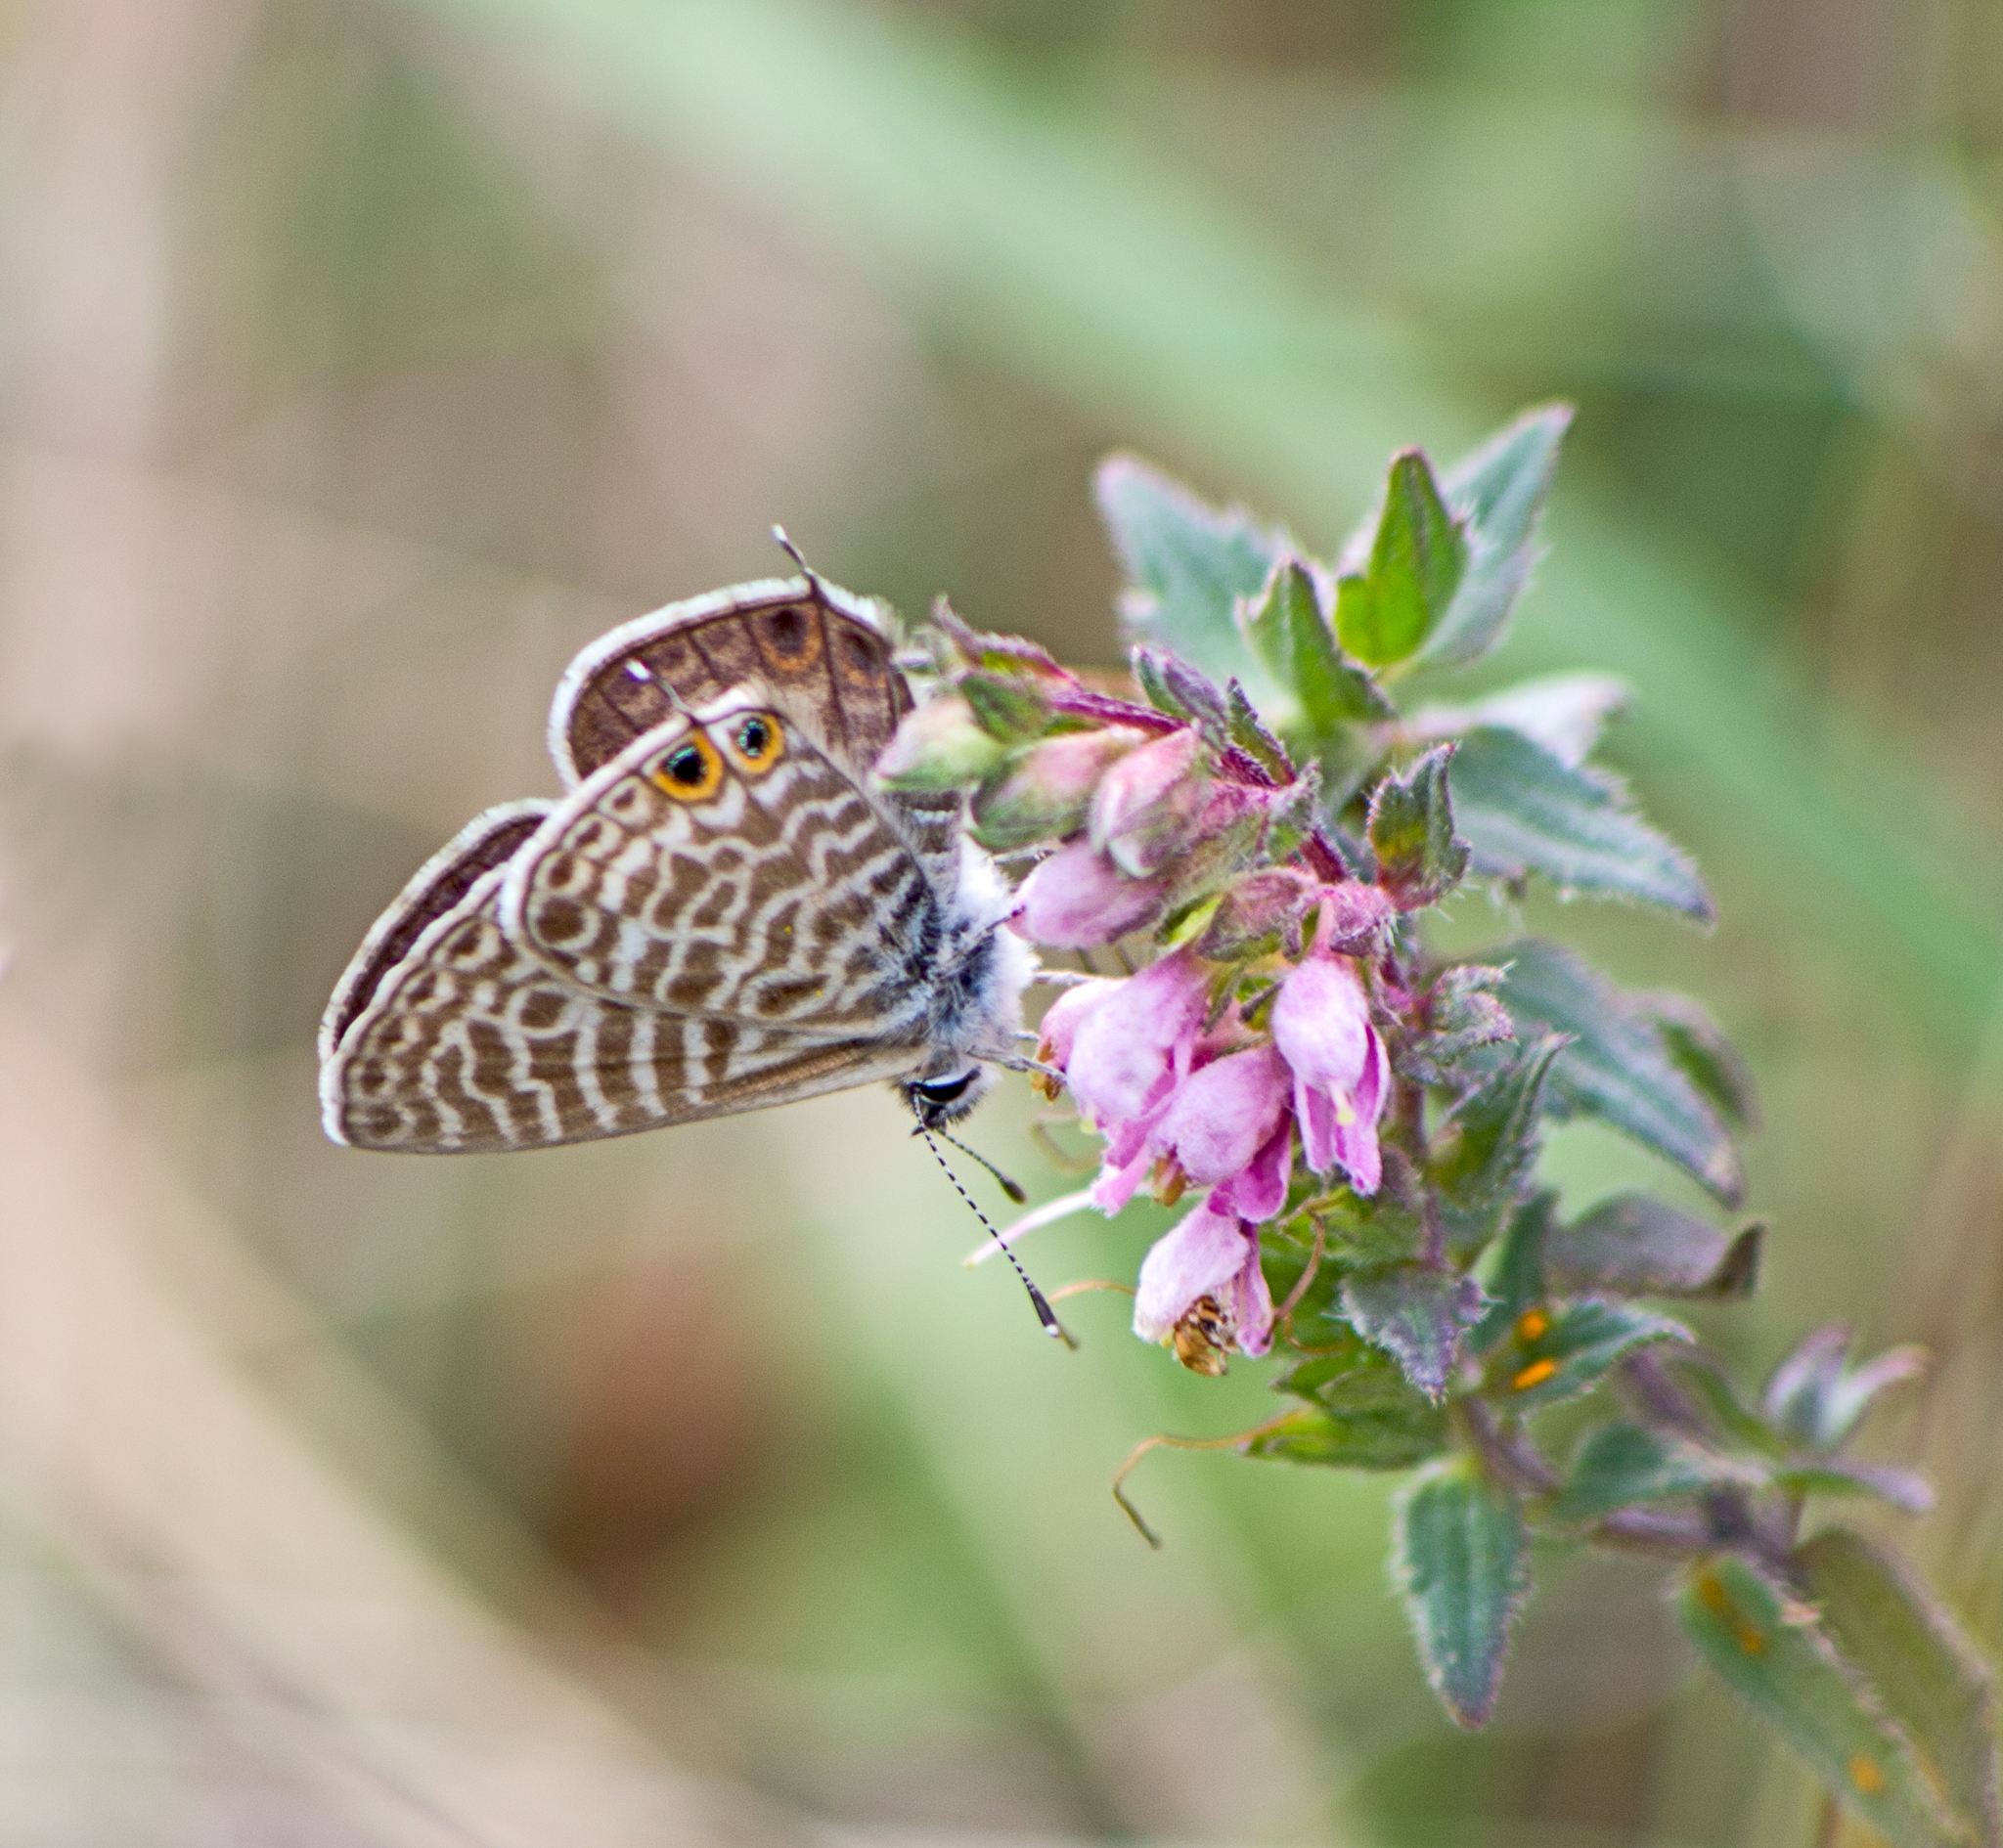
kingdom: Animalia
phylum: Arthropoda
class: Insecta
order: Lepidoptera
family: Lycaenidae
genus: Leptotes
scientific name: Leptotes pirithous
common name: Lang's short-tailed blue
